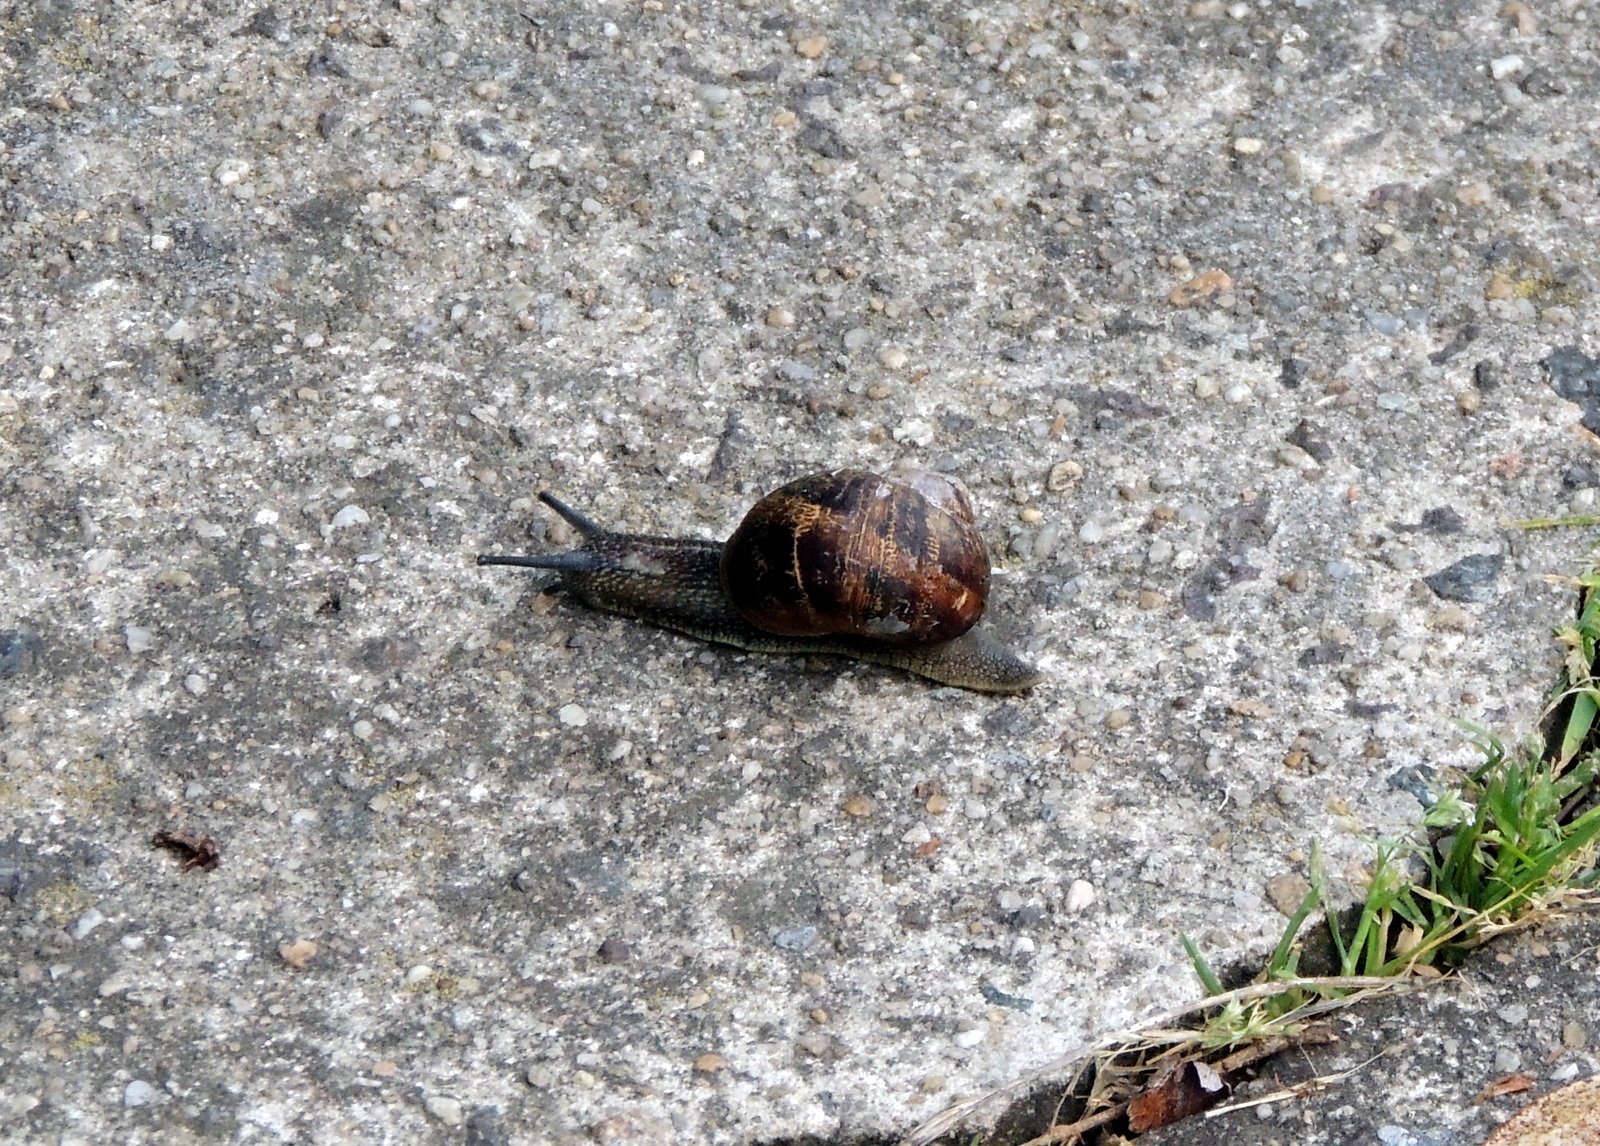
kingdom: Animalia
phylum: Mollusca
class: Gastropoda
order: Stylommatophora
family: Helicidae
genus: Cornu
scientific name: Cornu aspersum
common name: Brown garden snail
